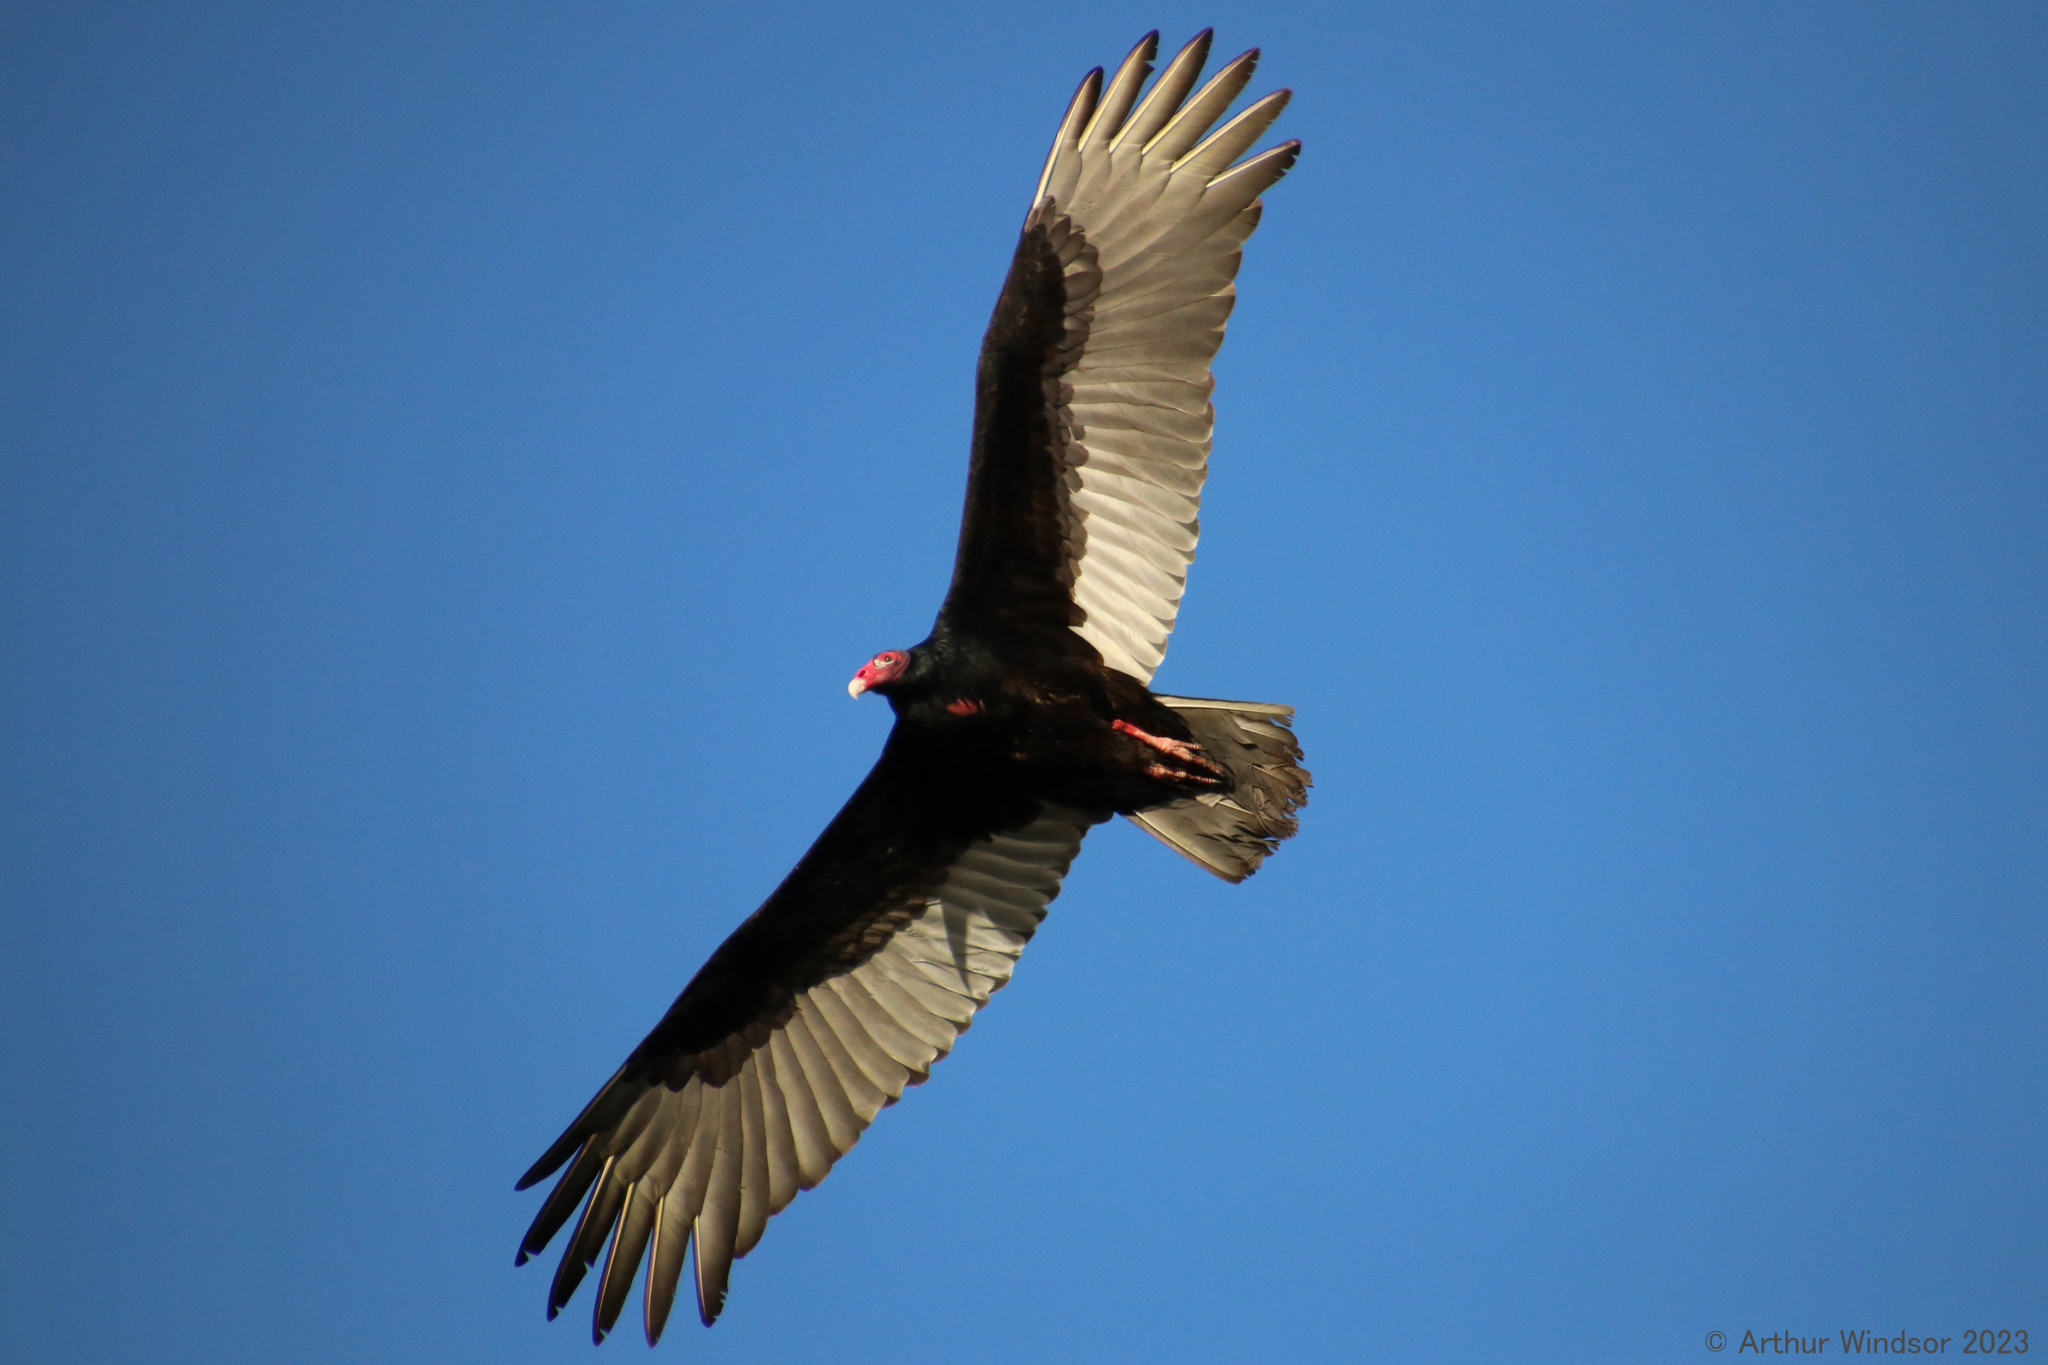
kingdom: Animalia
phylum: Chordata
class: Aves
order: Accipitriformes
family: Cathartidae
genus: Cathartes
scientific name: Cathartes aura
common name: Turkey vulture
